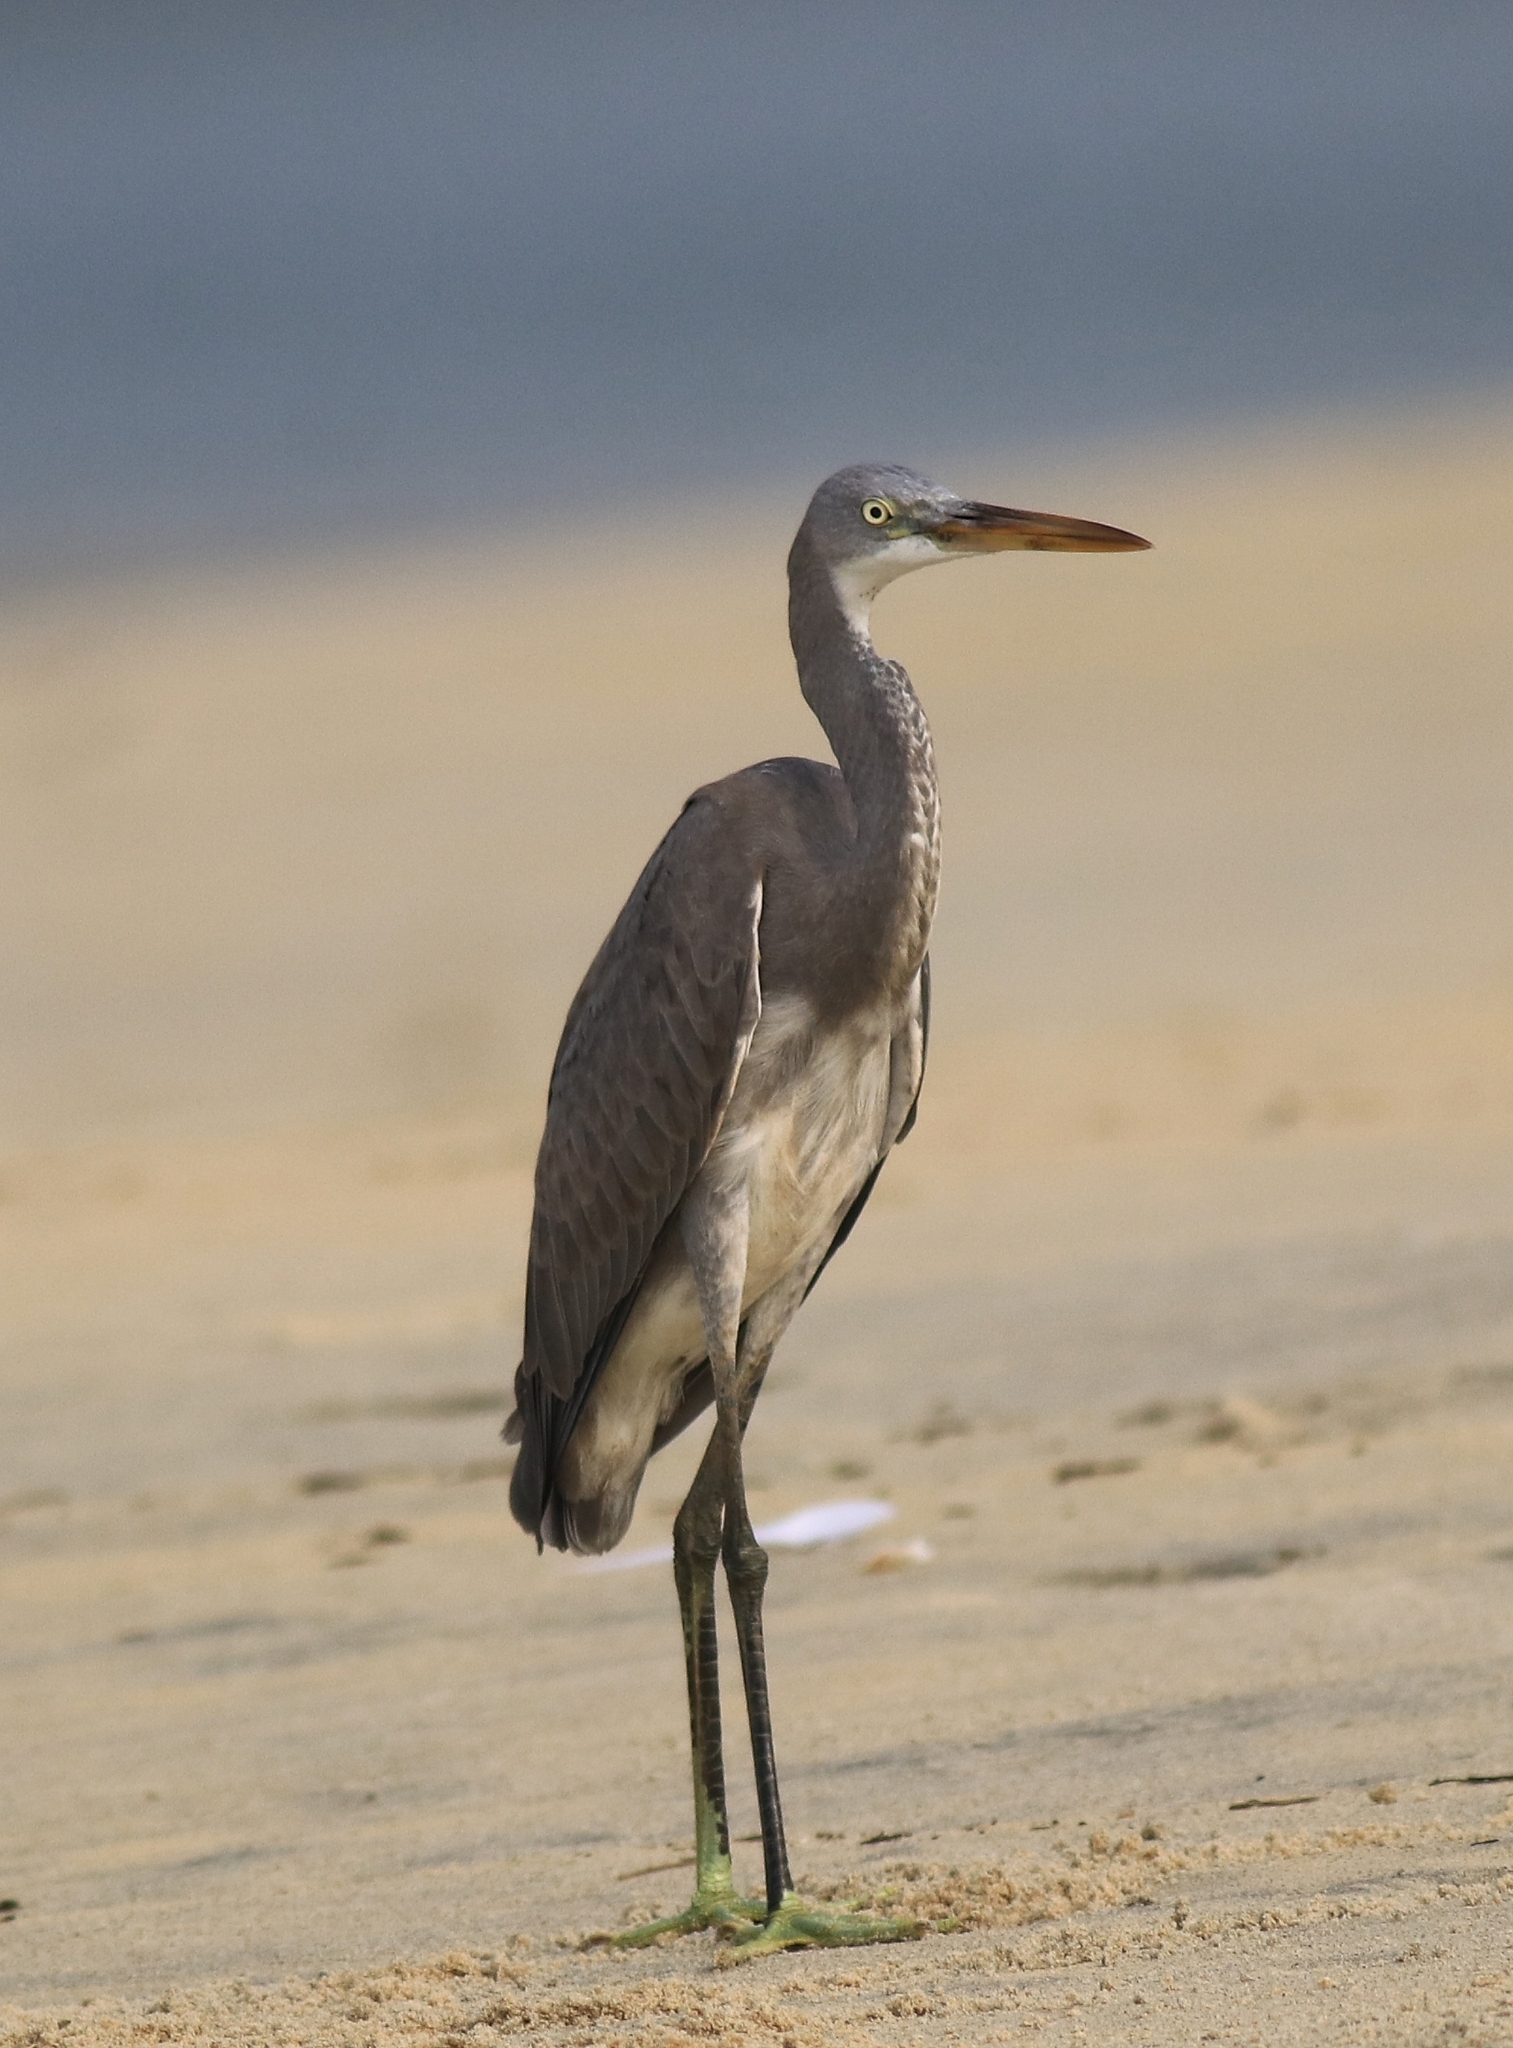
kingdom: Animalia
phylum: Chordata
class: Aves
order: Pelecaniformes
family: Ardeidae
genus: Egretta
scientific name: Egretta gularis
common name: Western reef-heron
